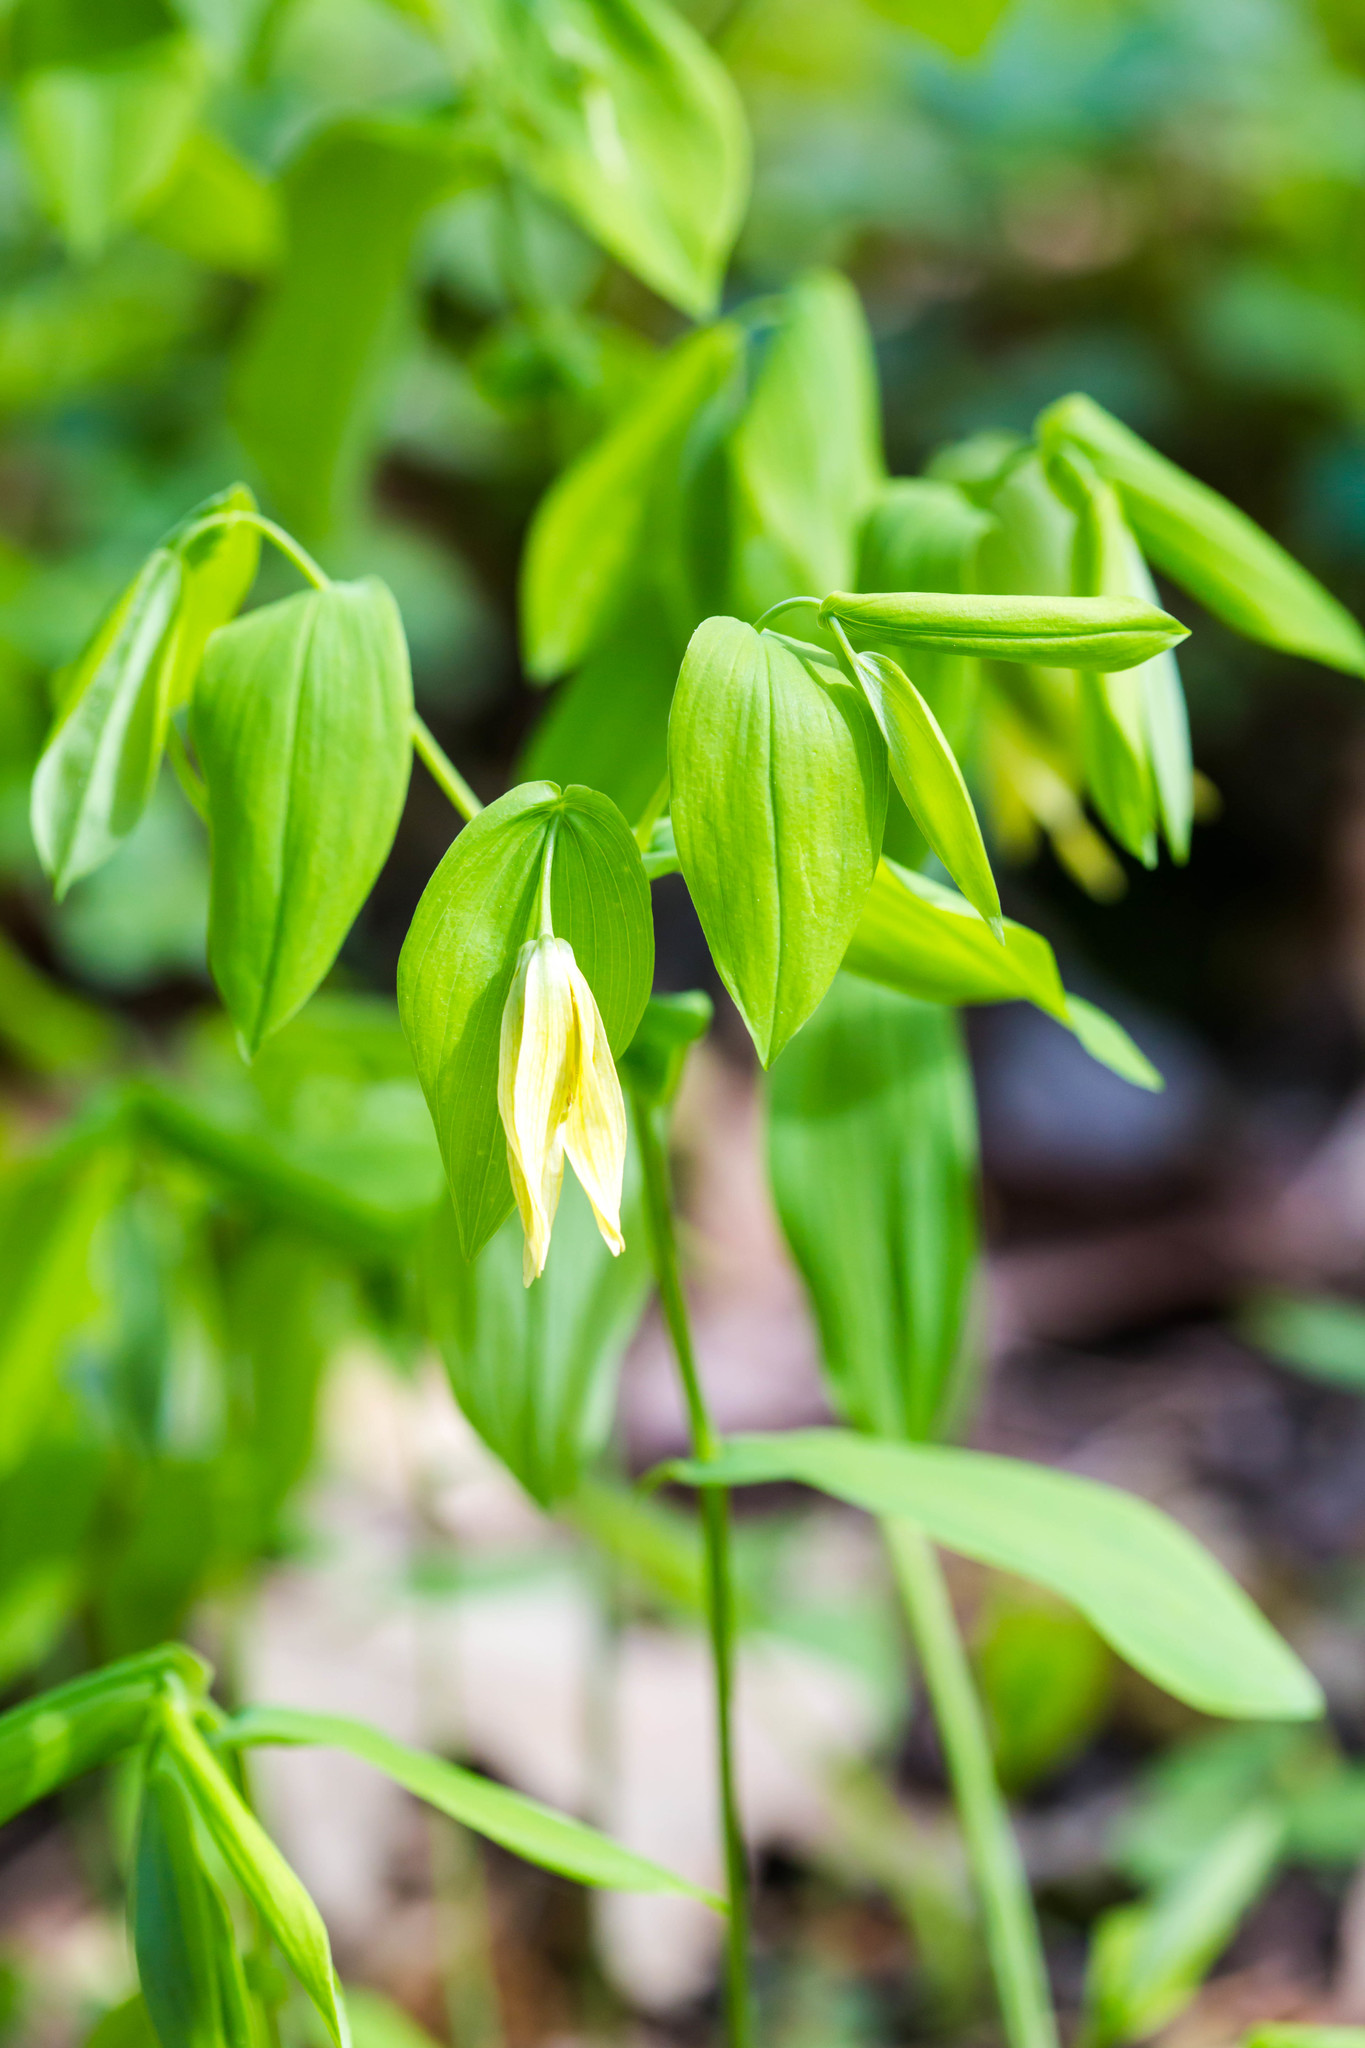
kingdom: Plantae
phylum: Tracheophyta
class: Liliopsida
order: Liliales
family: Colchicaceae
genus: Uvularia
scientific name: Uvularia grandiflora
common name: Bellwort
